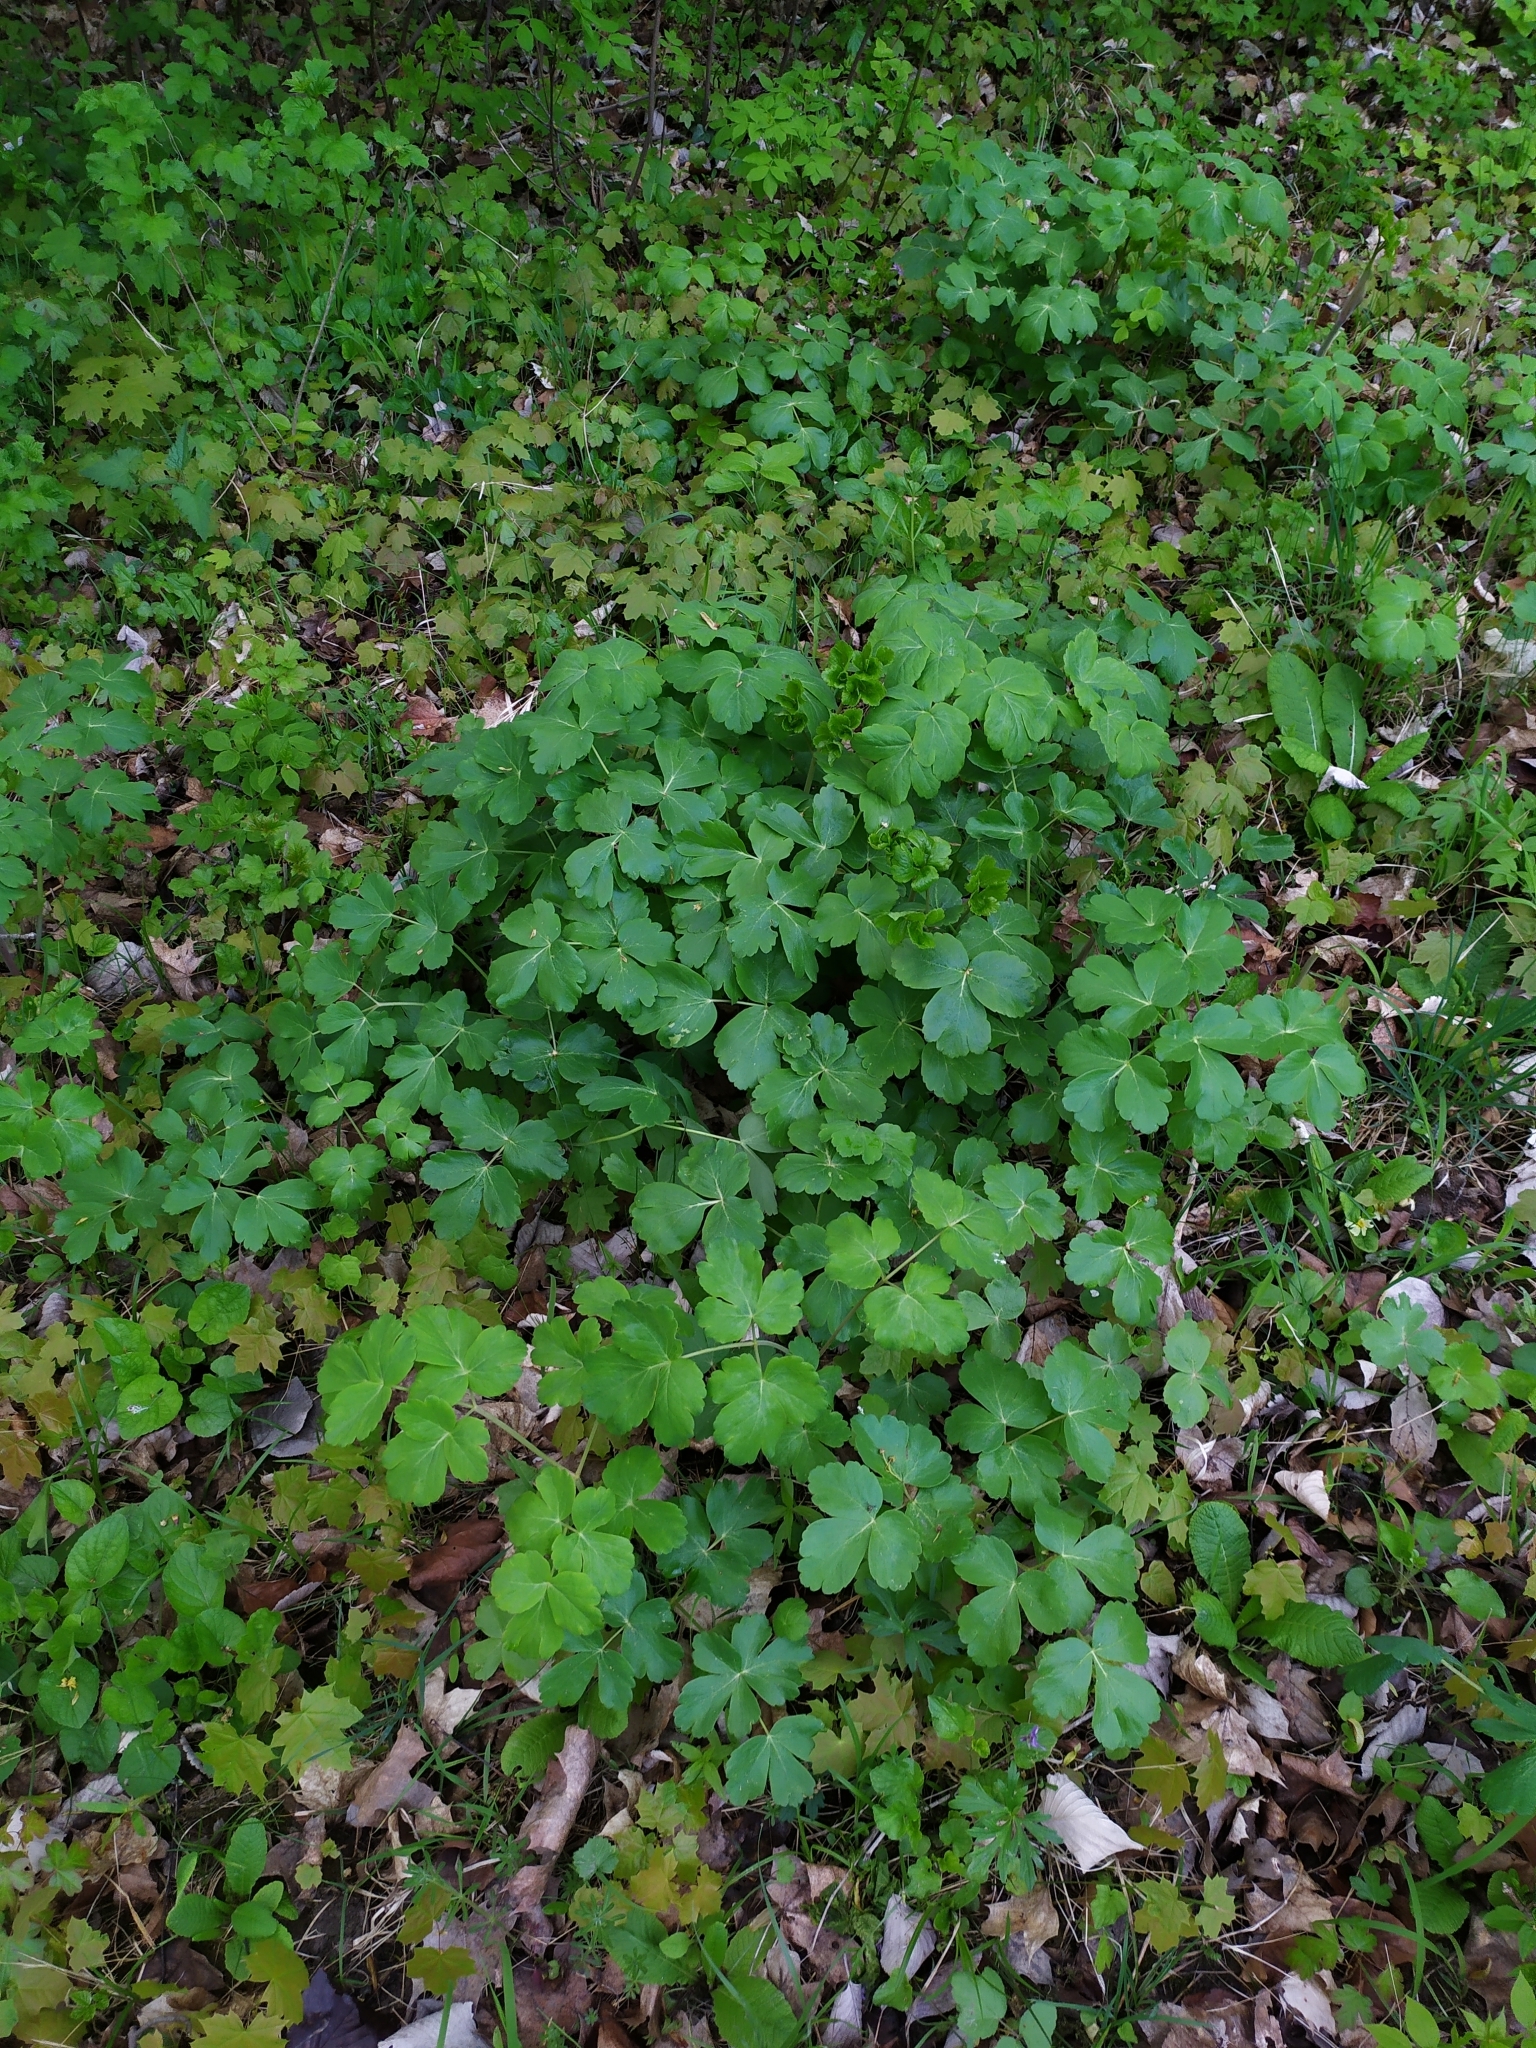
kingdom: Plantae
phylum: Tracheophyta
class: Magnoliopsida
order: Apiales
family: Apiaceae
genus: Laser
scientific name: Laser trilobum
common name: Laser
